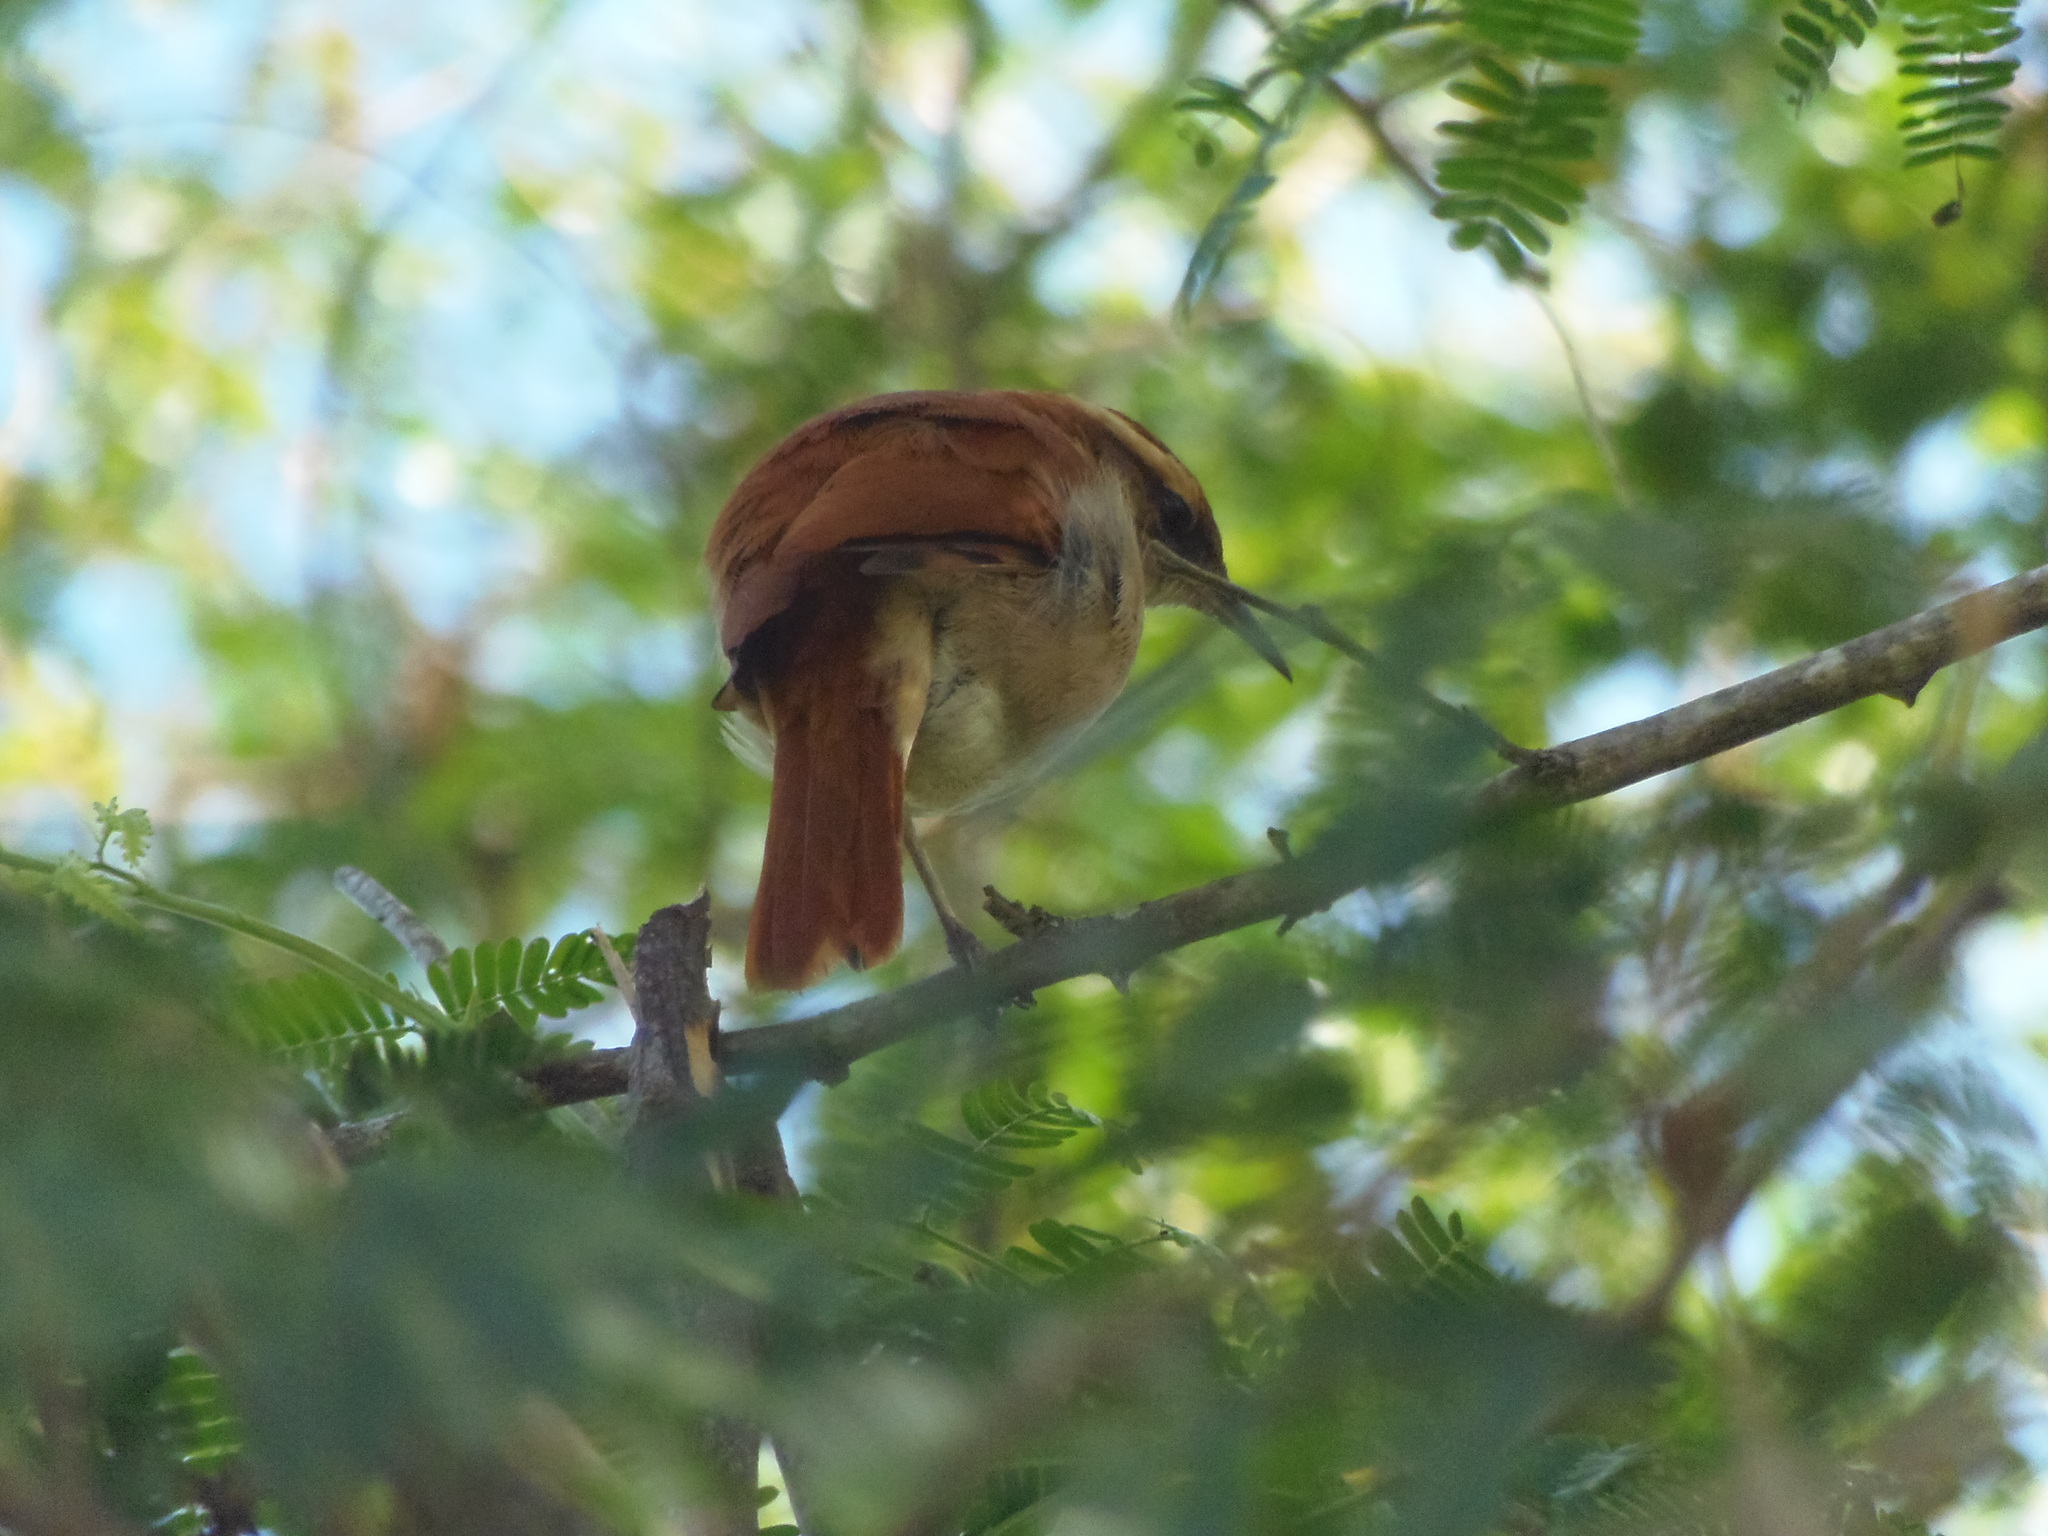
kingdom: Animalia
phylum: Chordata
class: Aves
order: Passeriformes
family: Furnariidae
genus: Furnarius
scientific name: Furnarius figulus
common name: Band-tailed hornero
